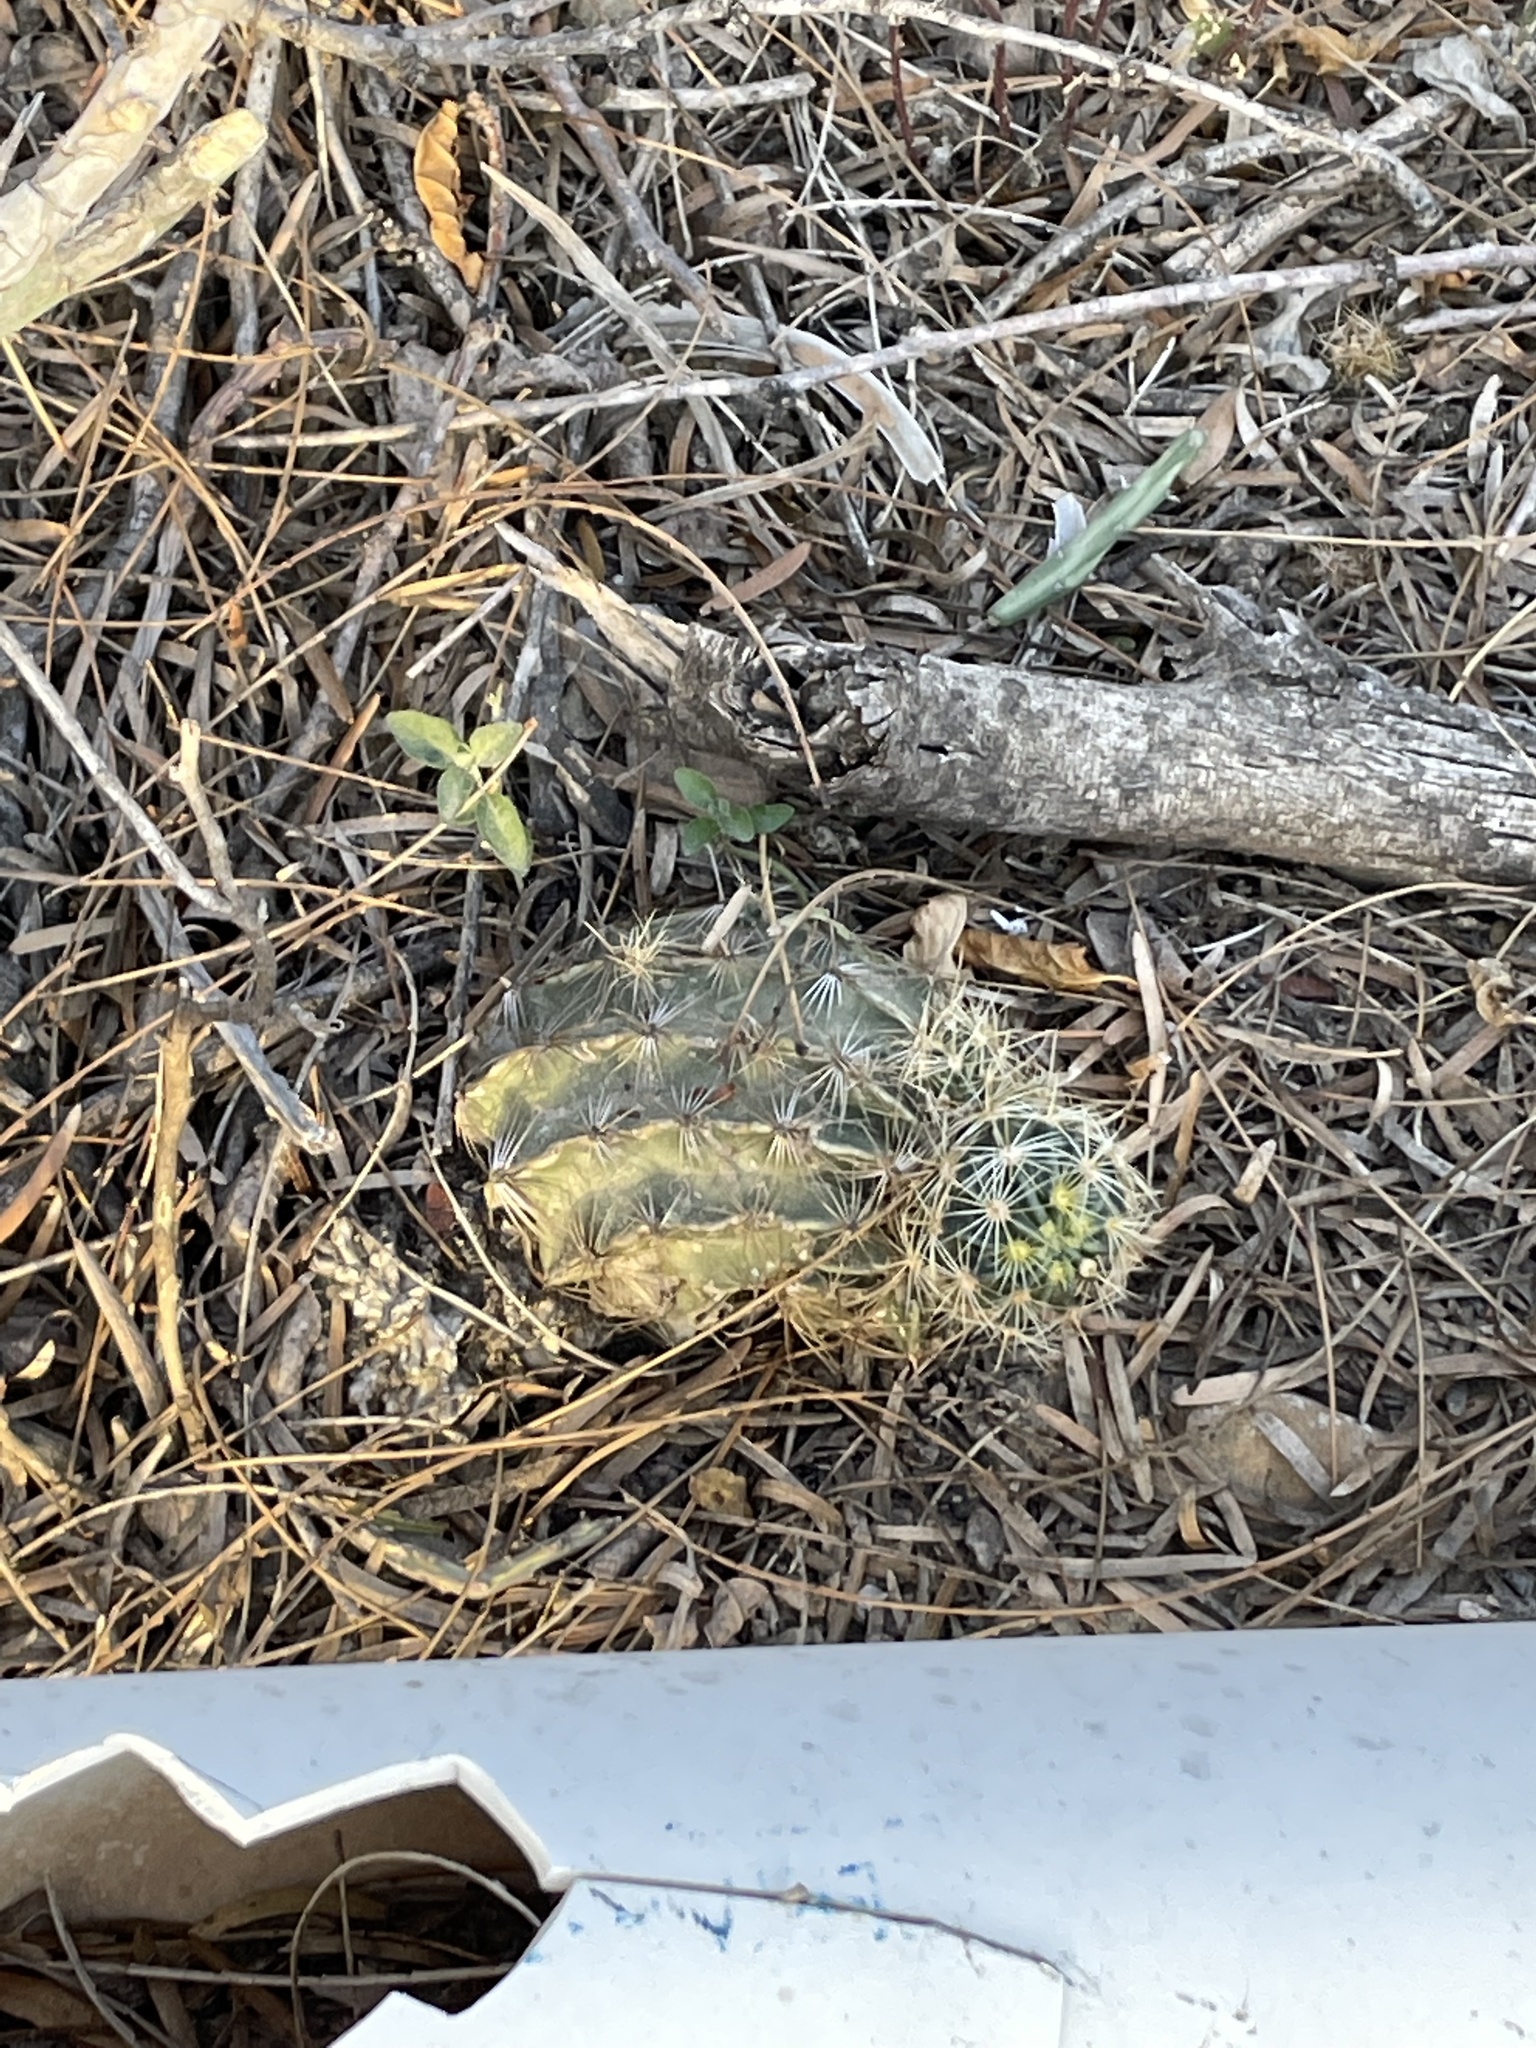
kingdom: Plantae
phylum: Tracheophyta
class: Magnoliopsida
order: Caryophyllales
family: Cactaceae
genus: Thelocactus
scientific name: Thelocactus setispinus
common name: Miniature barrel cactus
